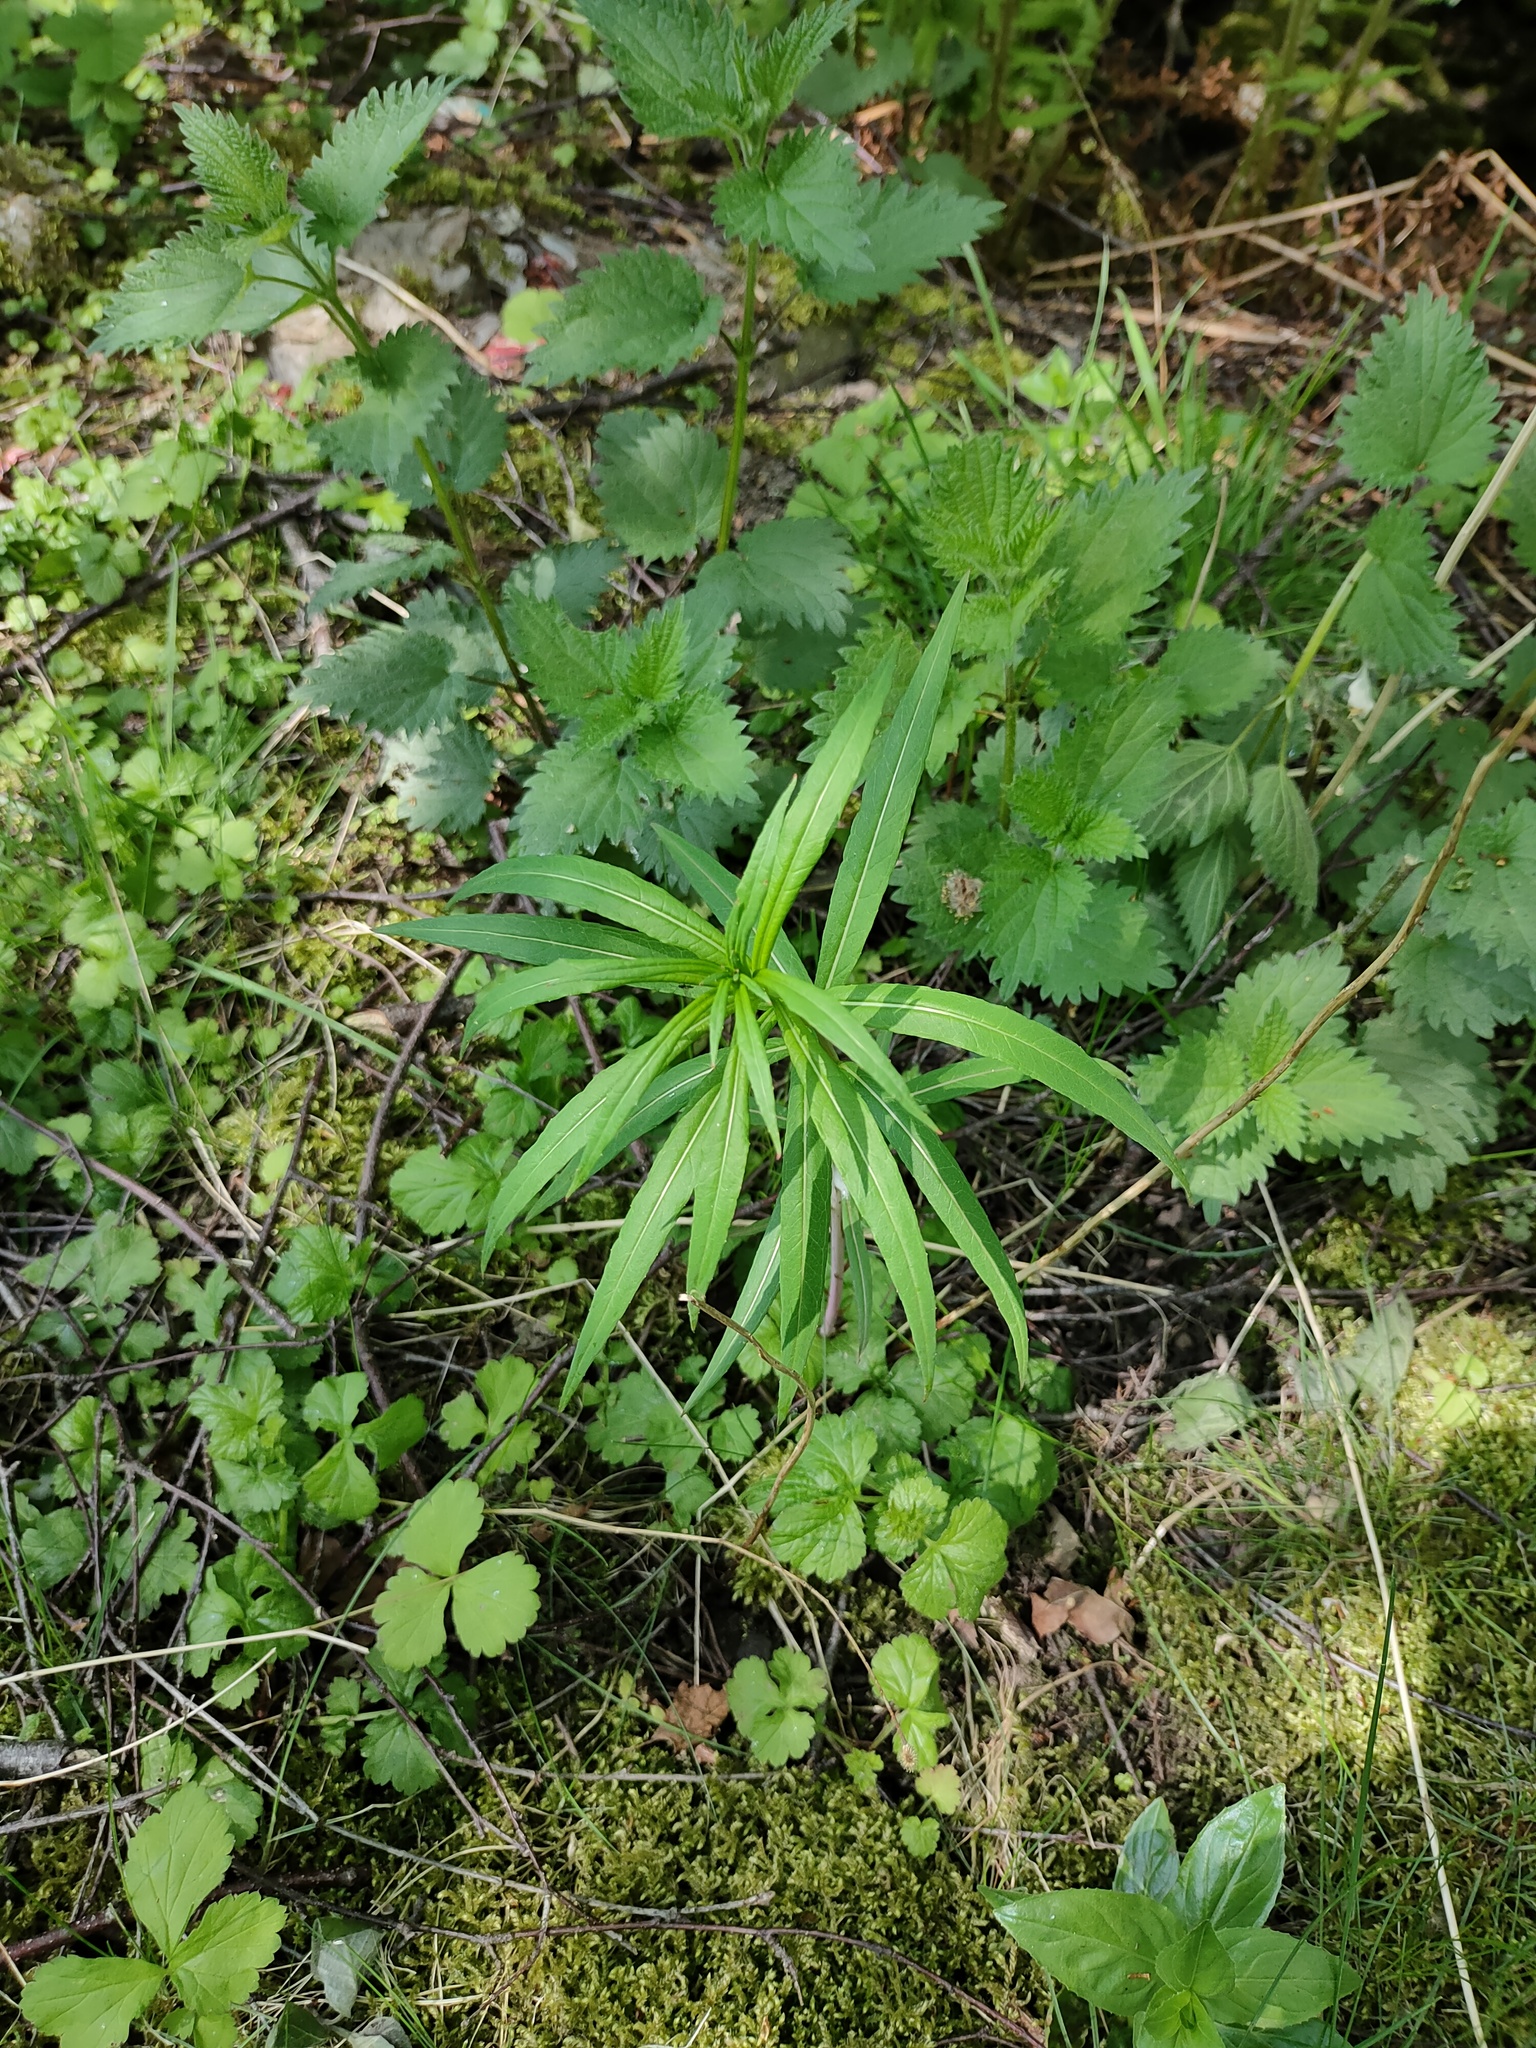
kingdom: Plantae
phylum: Tracheophyta
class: Magnoliopsida
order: Myrtales
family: Onagraceae
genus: Chamaenerion
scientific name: Chamaenerion angustifolium
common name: Fireweed
